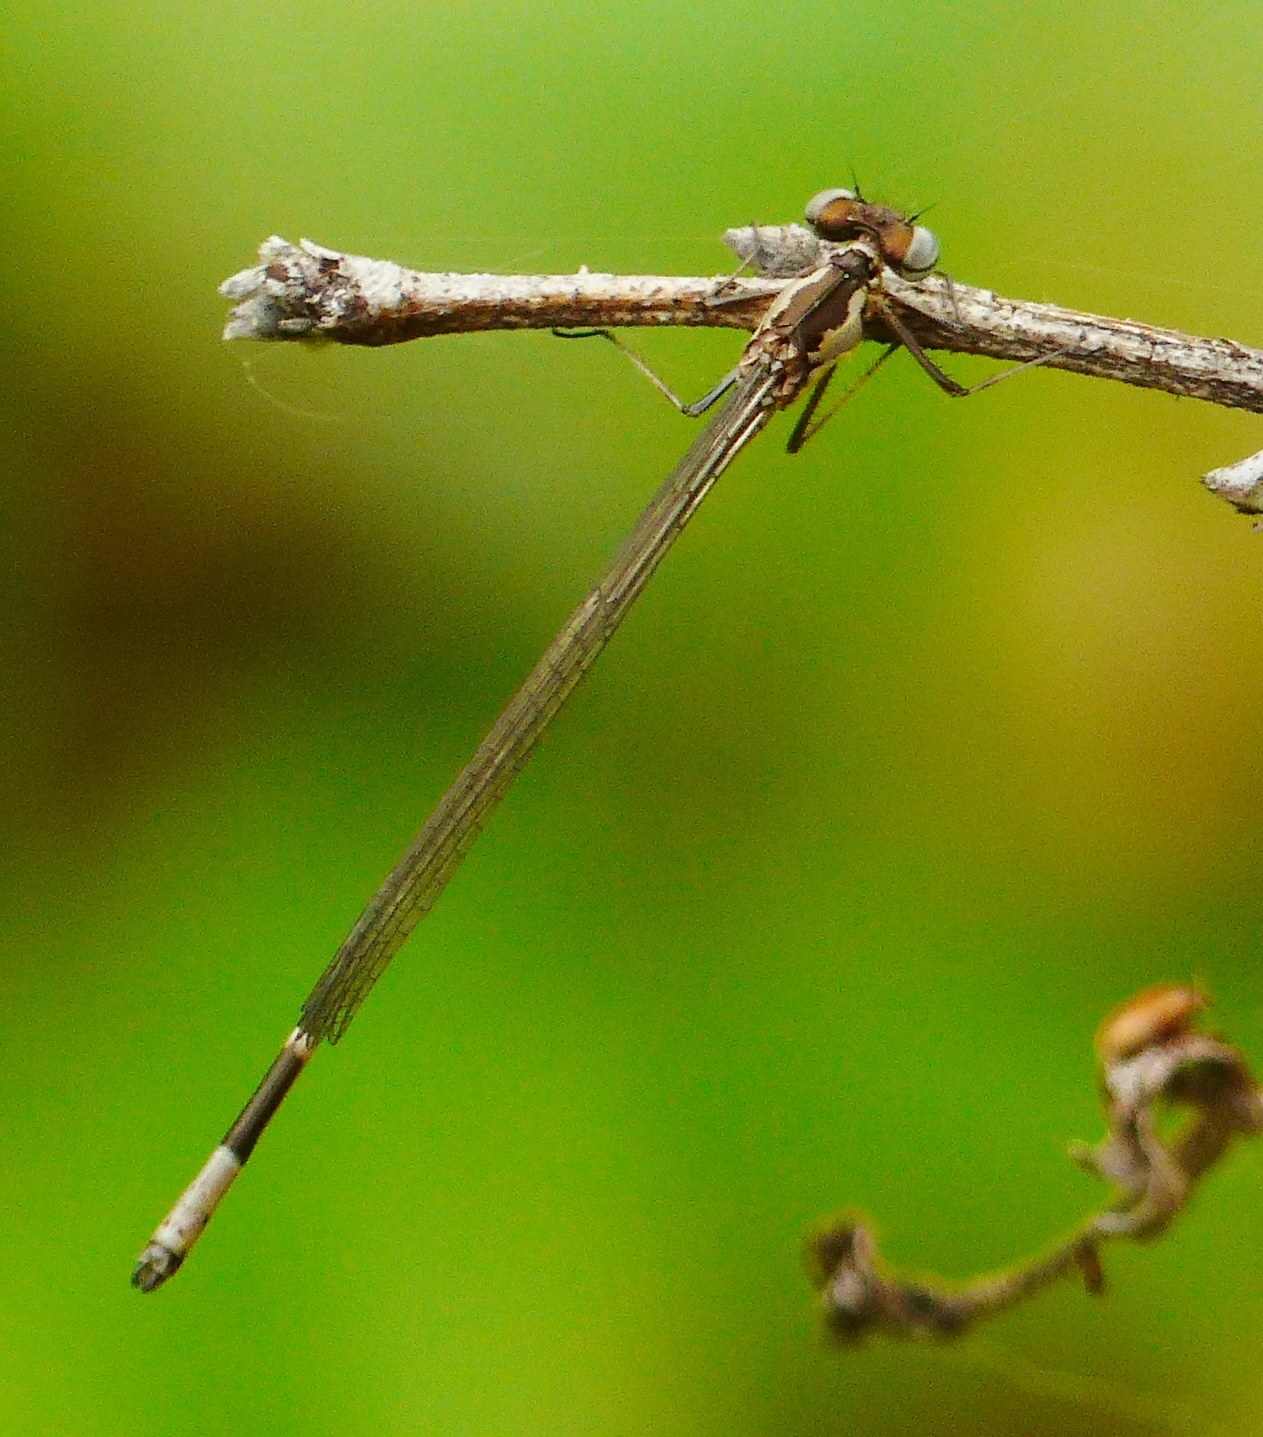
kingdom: Animalia
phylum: Arthropoda
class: Insecta
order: Odonata
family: Coenagrionidae
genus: Chromagrion
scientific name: Chromagrion conditum
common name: Aurora damsel
